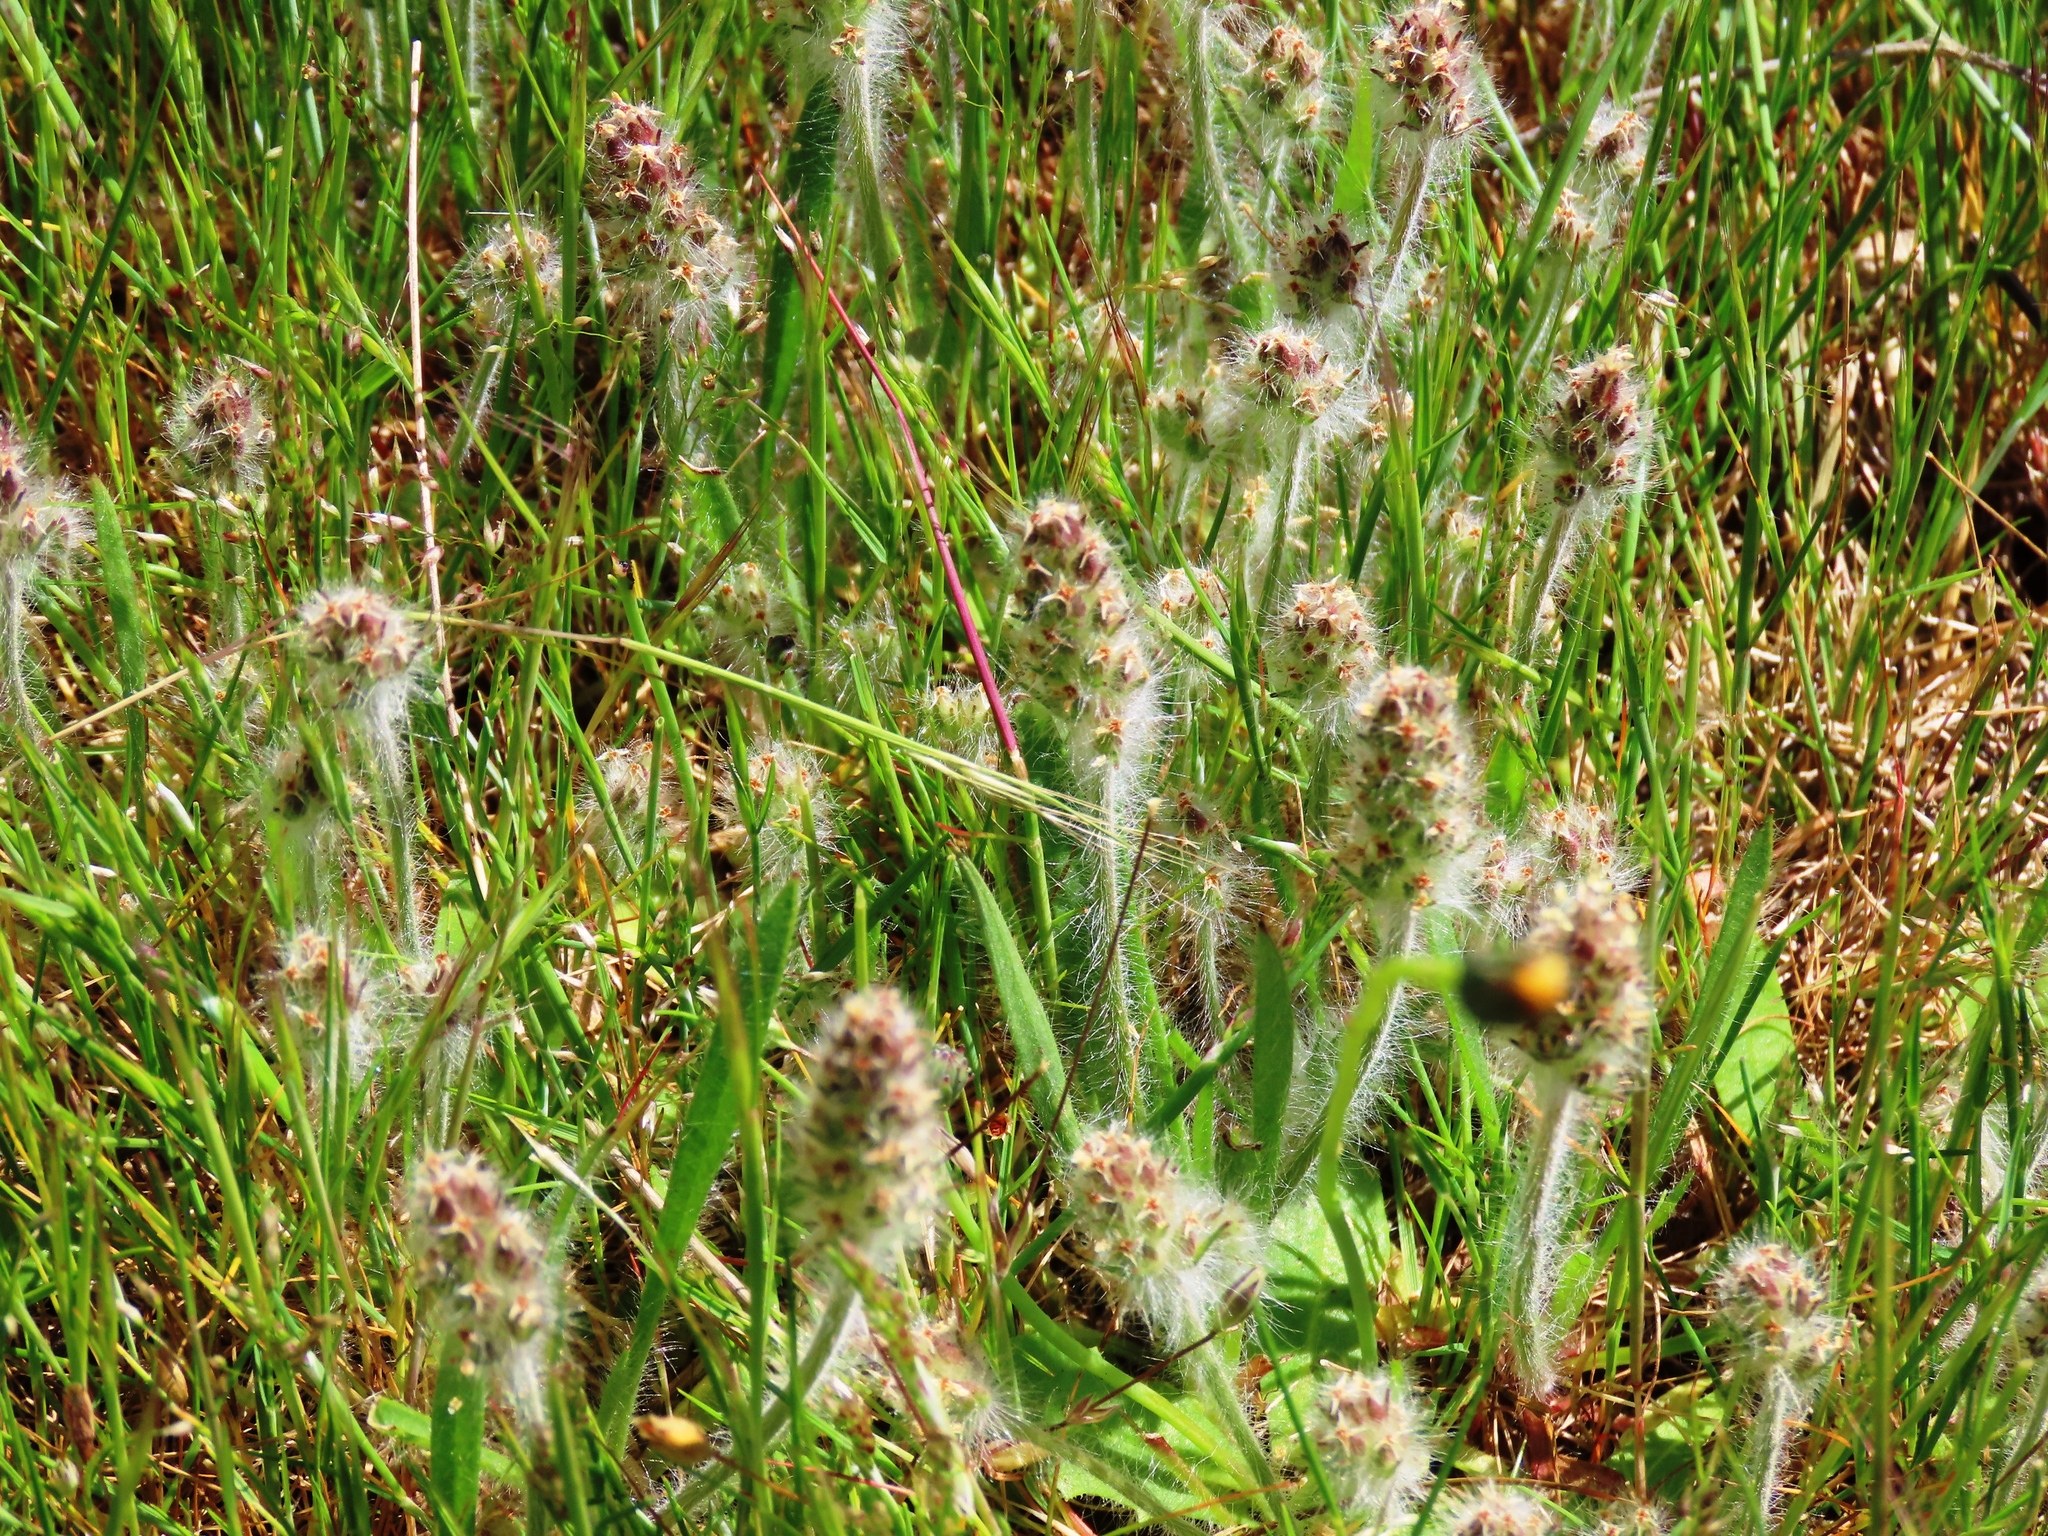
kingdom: Plantae
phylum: Tracheophyta
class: Magnoliopsida
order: Lamiales
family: Plantaginaceae
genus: Plantago
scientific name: Plantago bellardii
